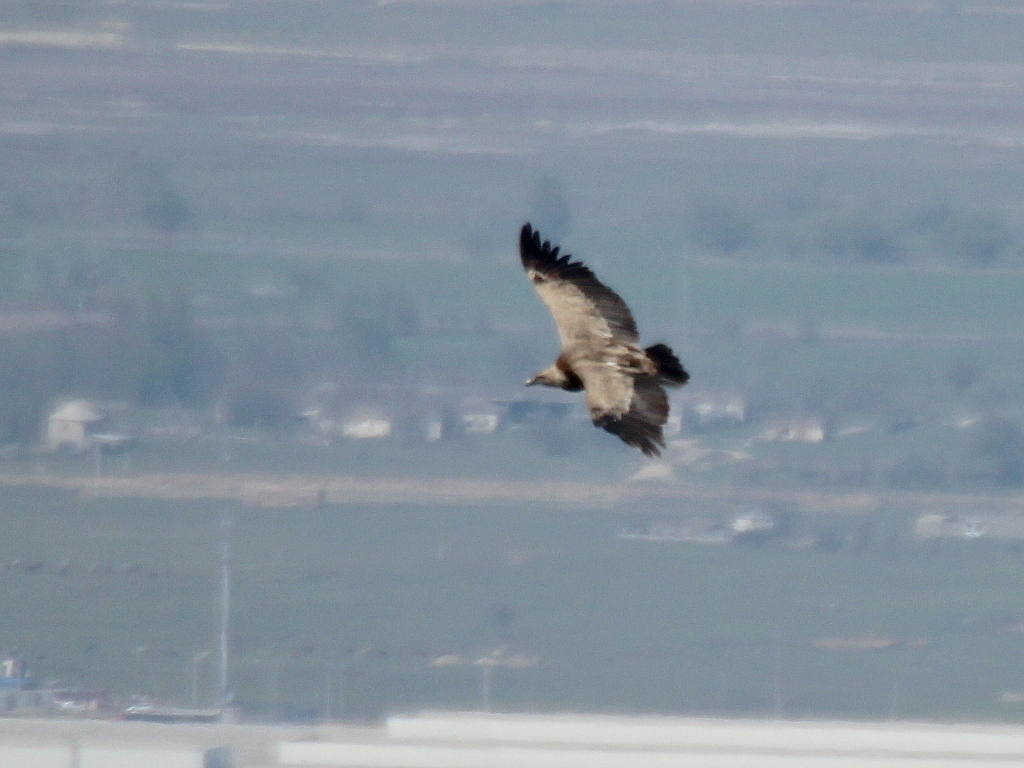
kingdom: Animalia
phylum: Chordata
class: Aves
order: Accipitriformes
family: Accipitridae
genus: Gyps
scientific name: Gyps fulvus
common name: Griffon vulture
